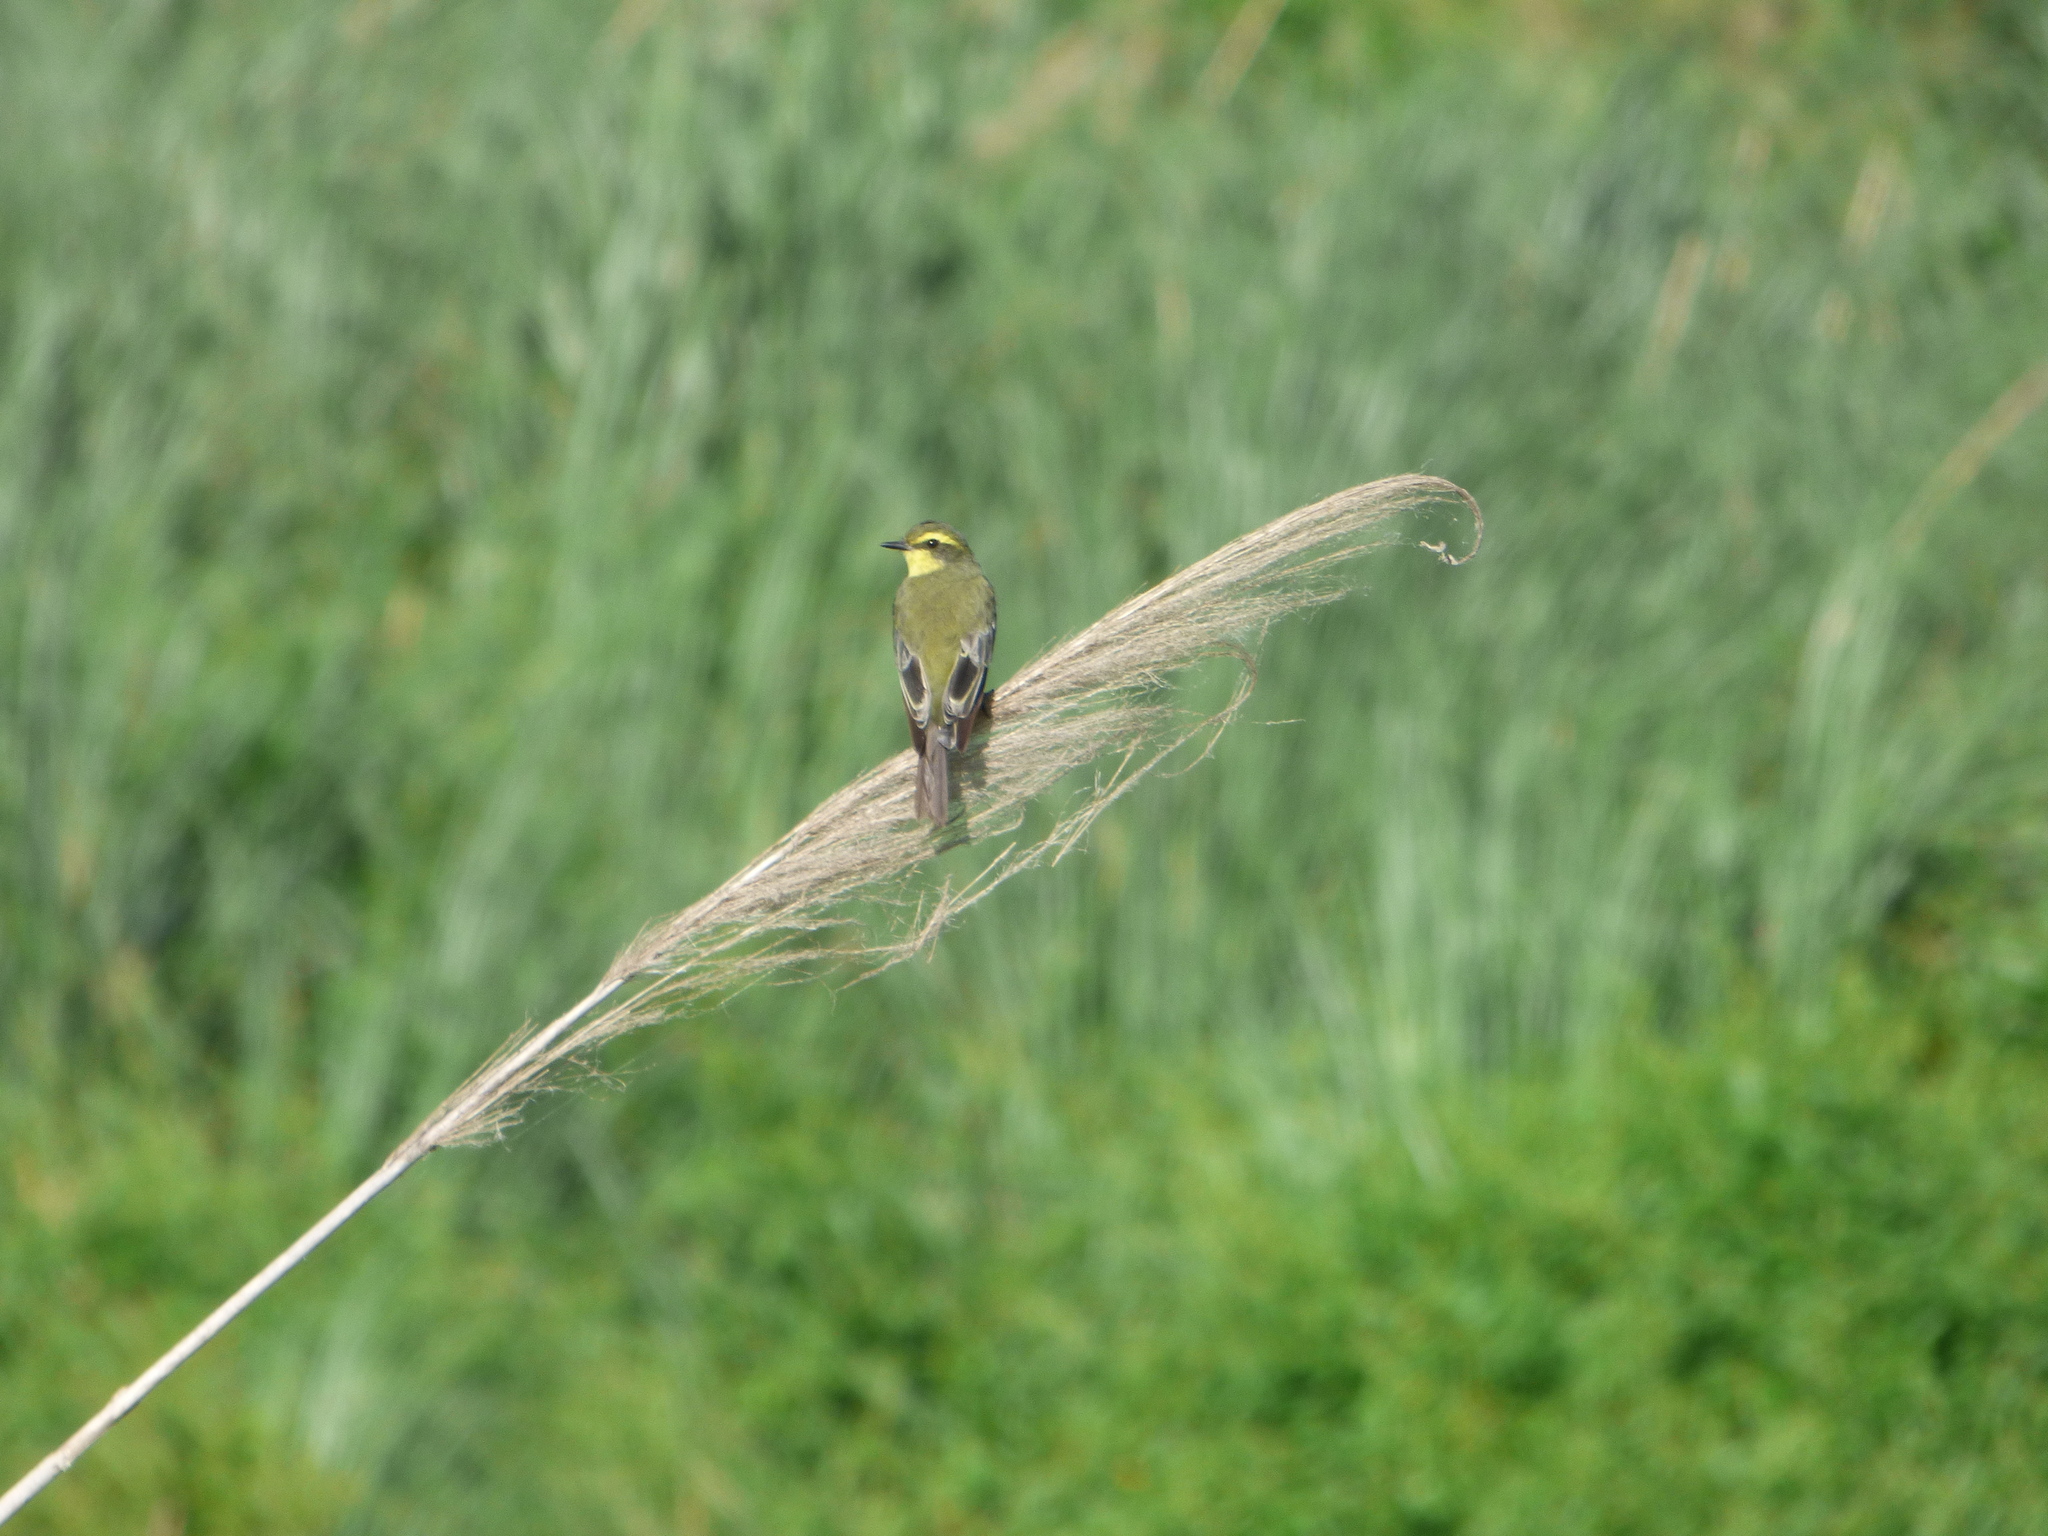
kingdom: Animalia
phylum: Chordata
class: Aves
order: Passeriformes
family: Tyrannidae
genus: Satrapa
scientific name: Satrapa icterophrys
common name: Yellow-browed tyrant
